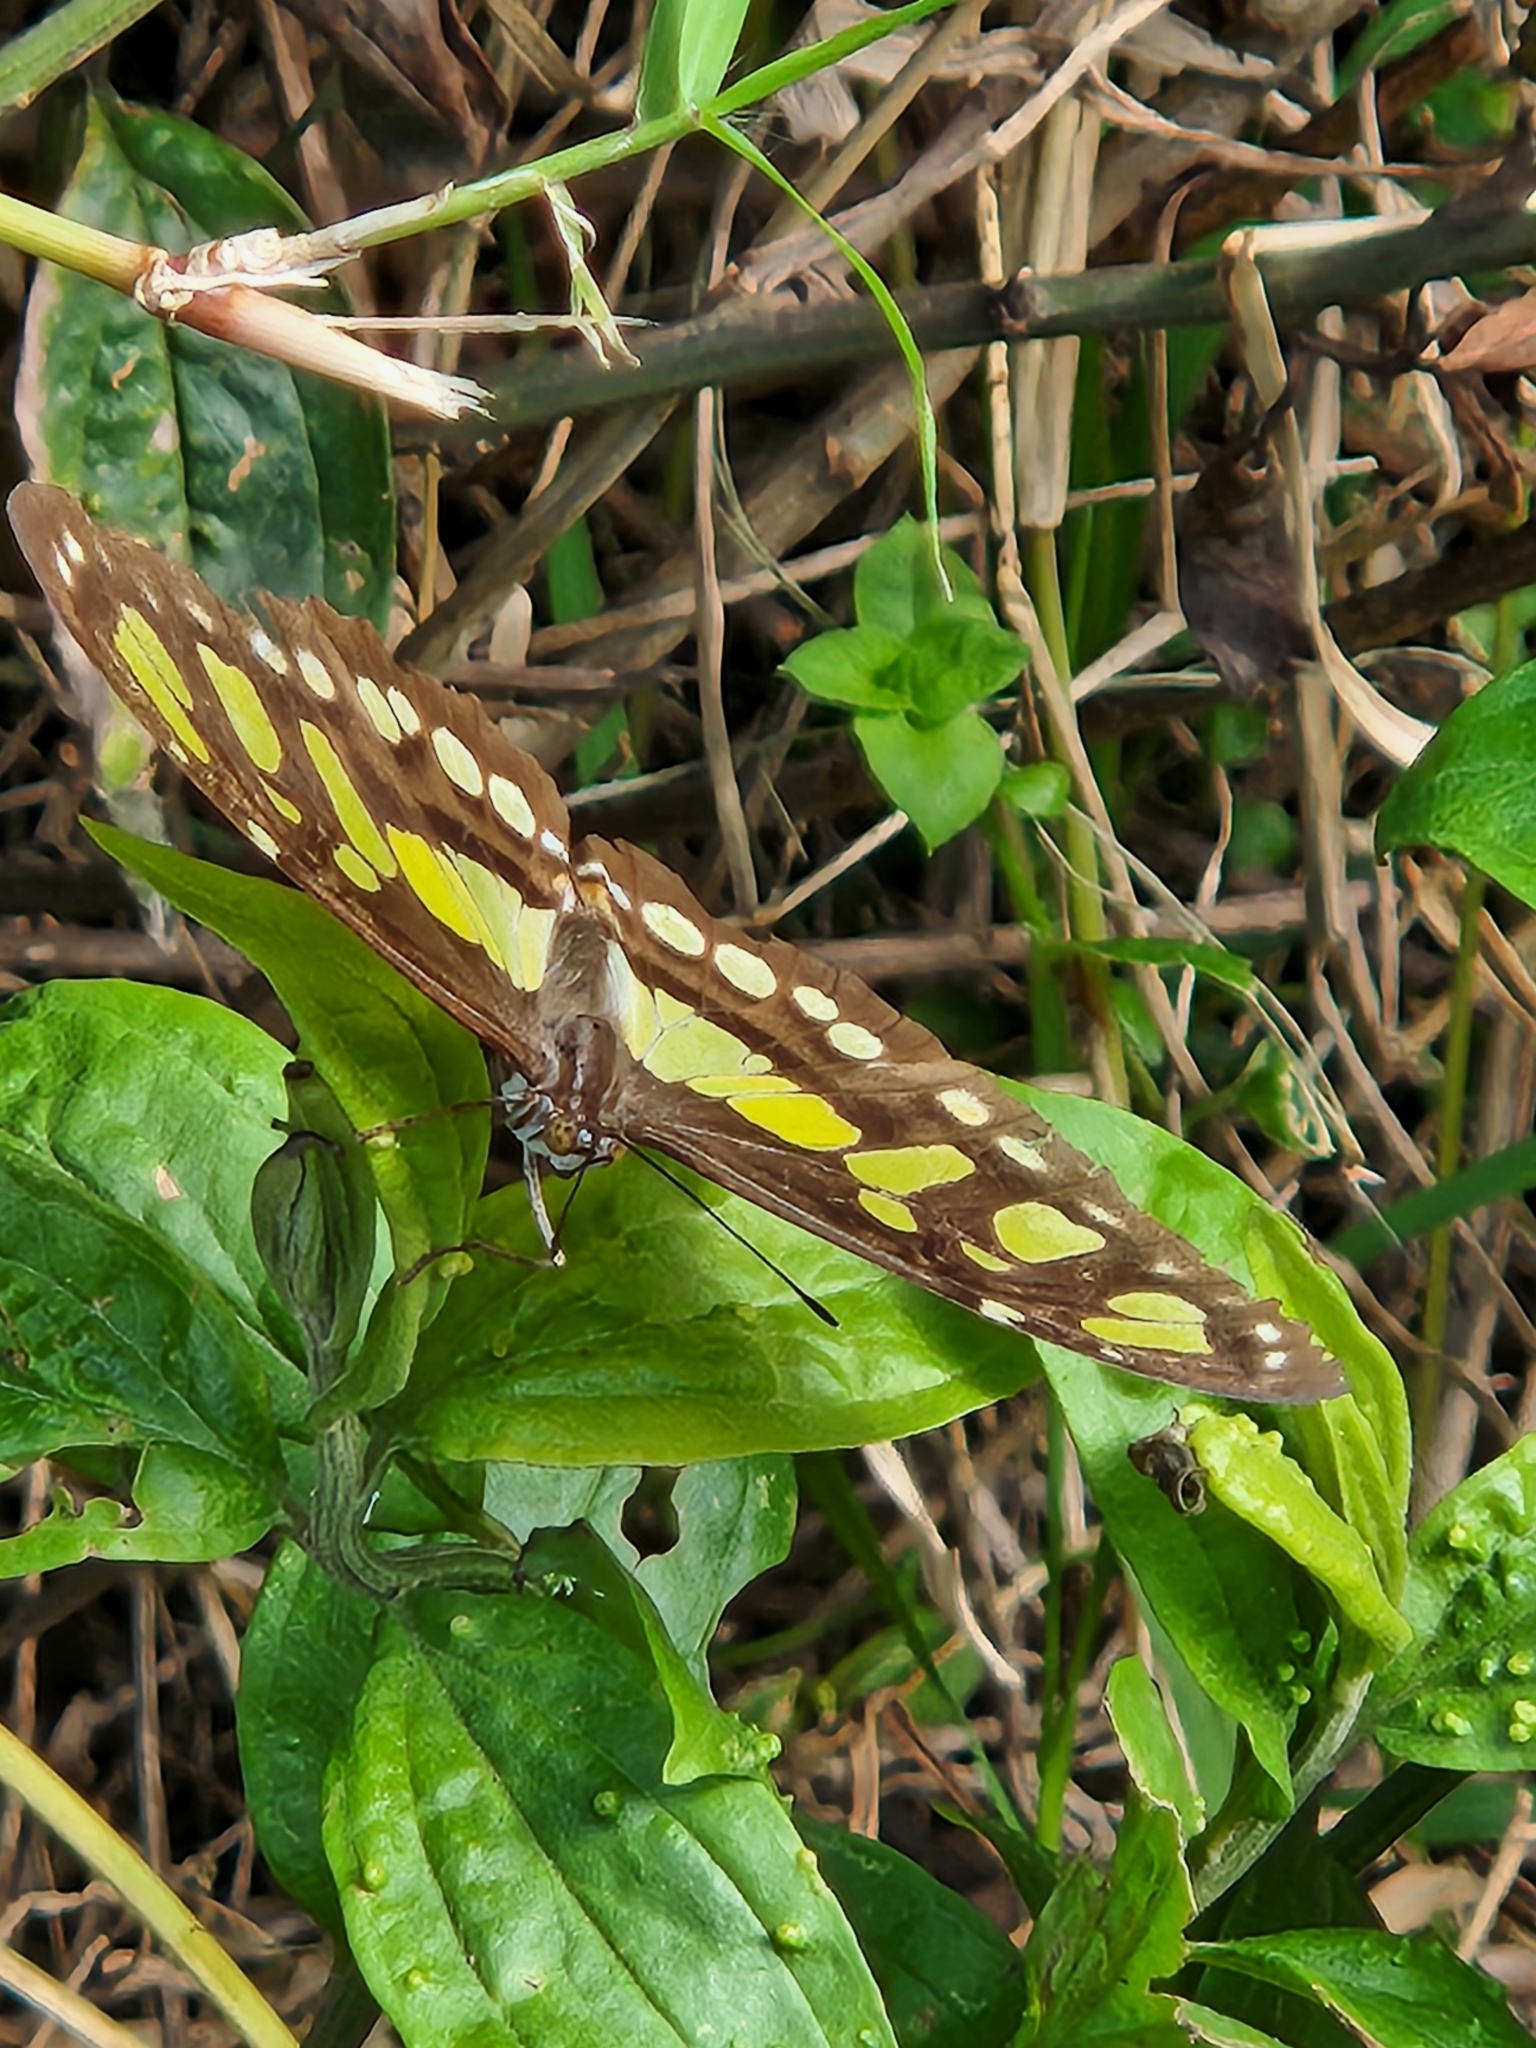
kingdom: Animalia
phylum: Arthropoda
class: Insecta
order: Lepidoptera
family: Nymphalidae
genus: Siproeta
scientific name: Siproeta stelenes
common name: Malachite
